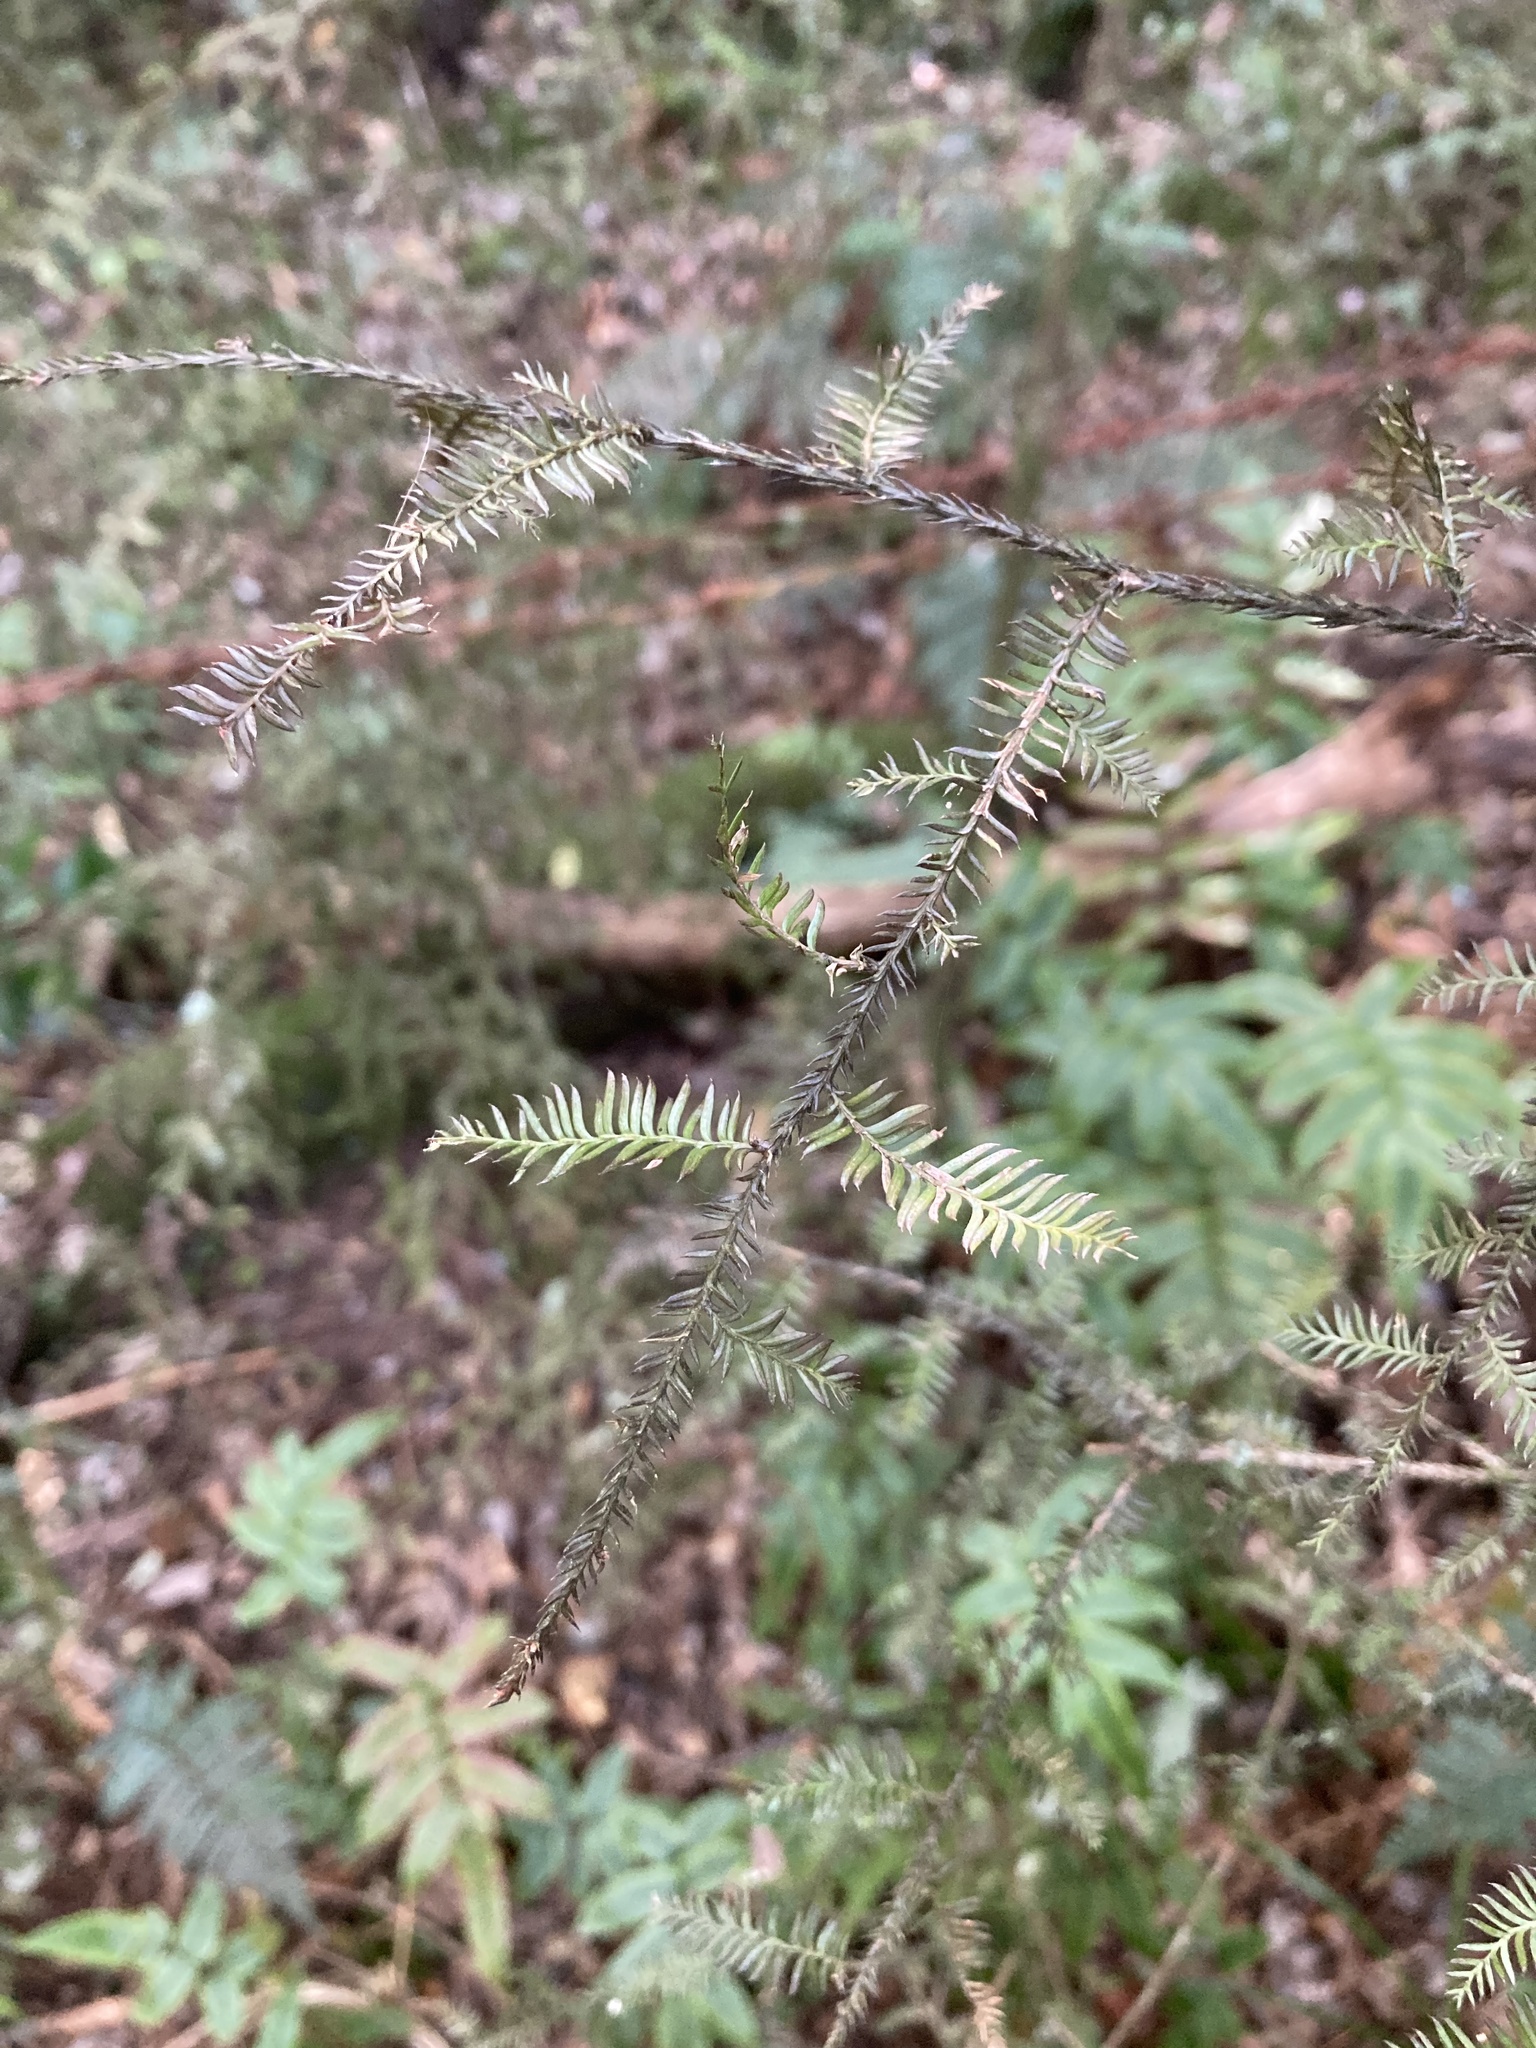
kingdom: Plantae
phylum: Tracheophyta
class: Pinopsida
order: Pinales
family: Podocarpaceae
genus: Dacrycarpus
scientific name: Dacrycarpus dacrydioides
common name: White pine
